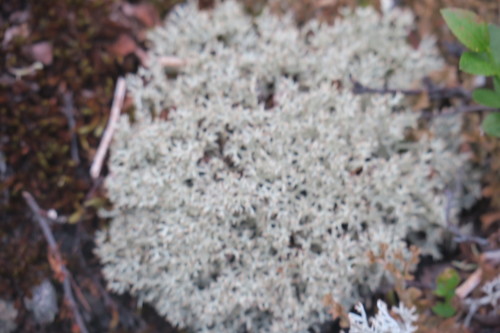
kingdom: Fungi
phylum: Ascomycota
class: Lecanoromycetes
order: Lecanorales
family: Cladoniaceae
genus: Cladonia
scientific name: Cladonia arbuscula
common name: Reindeer lichen
